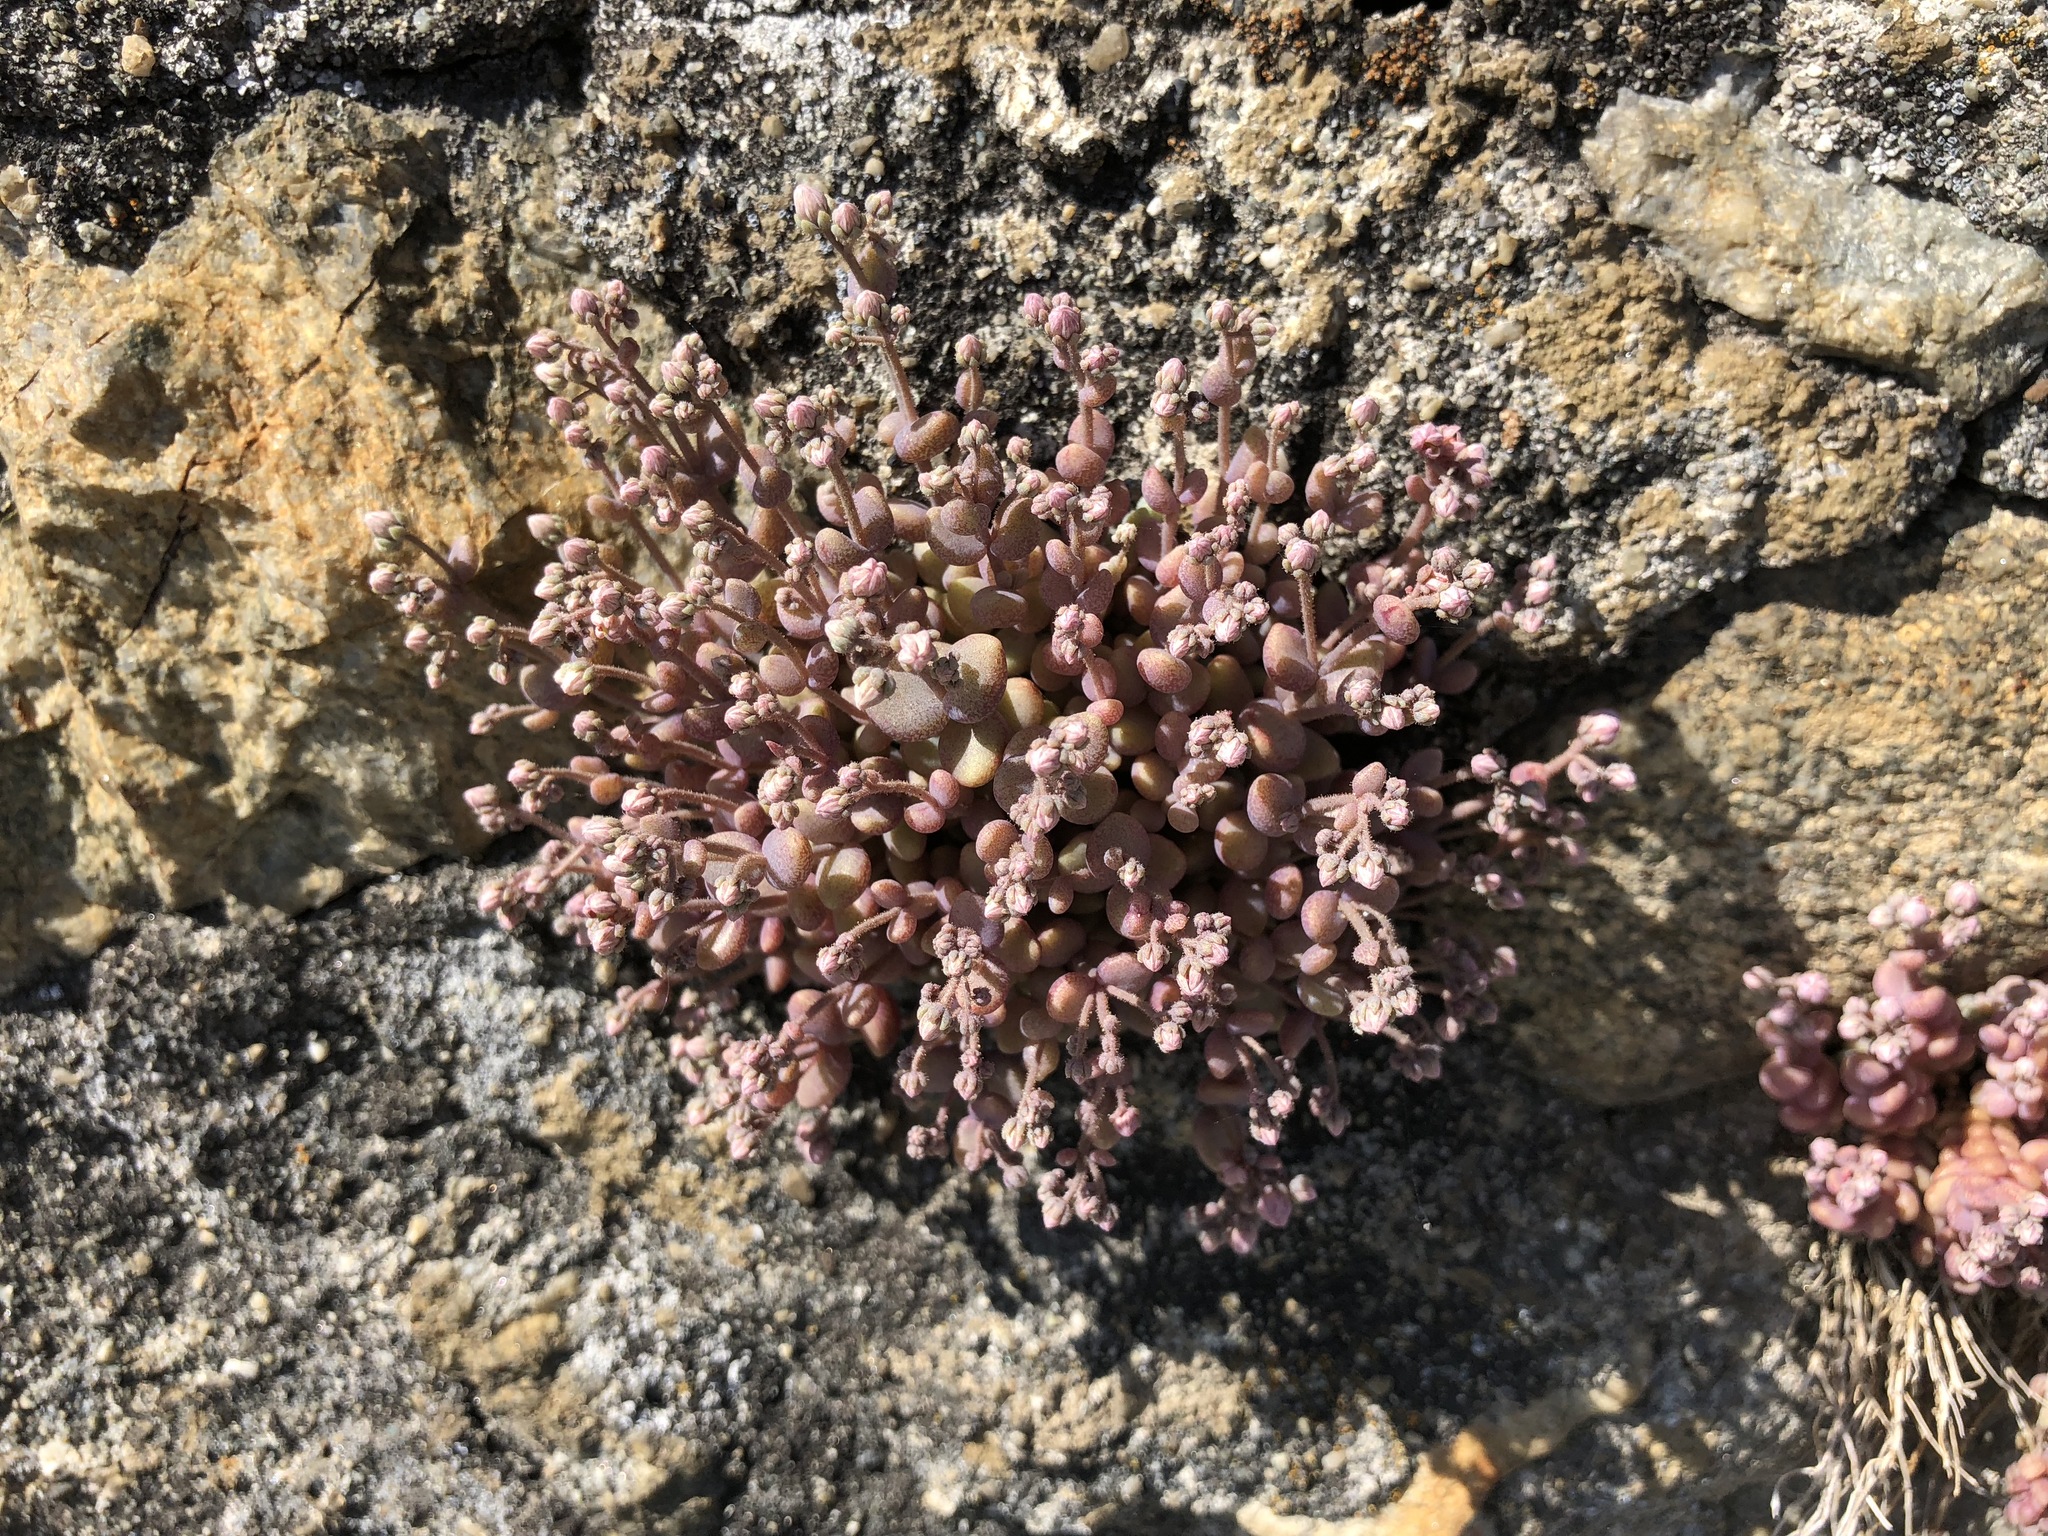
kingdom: Plantae
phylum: Tracheophyta
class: Magnoliopsida
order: Saxifragales
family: Crassulaceae
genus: Sedum
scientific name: Sedum dasyphyllum
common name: Thick-leaf stonecrop
